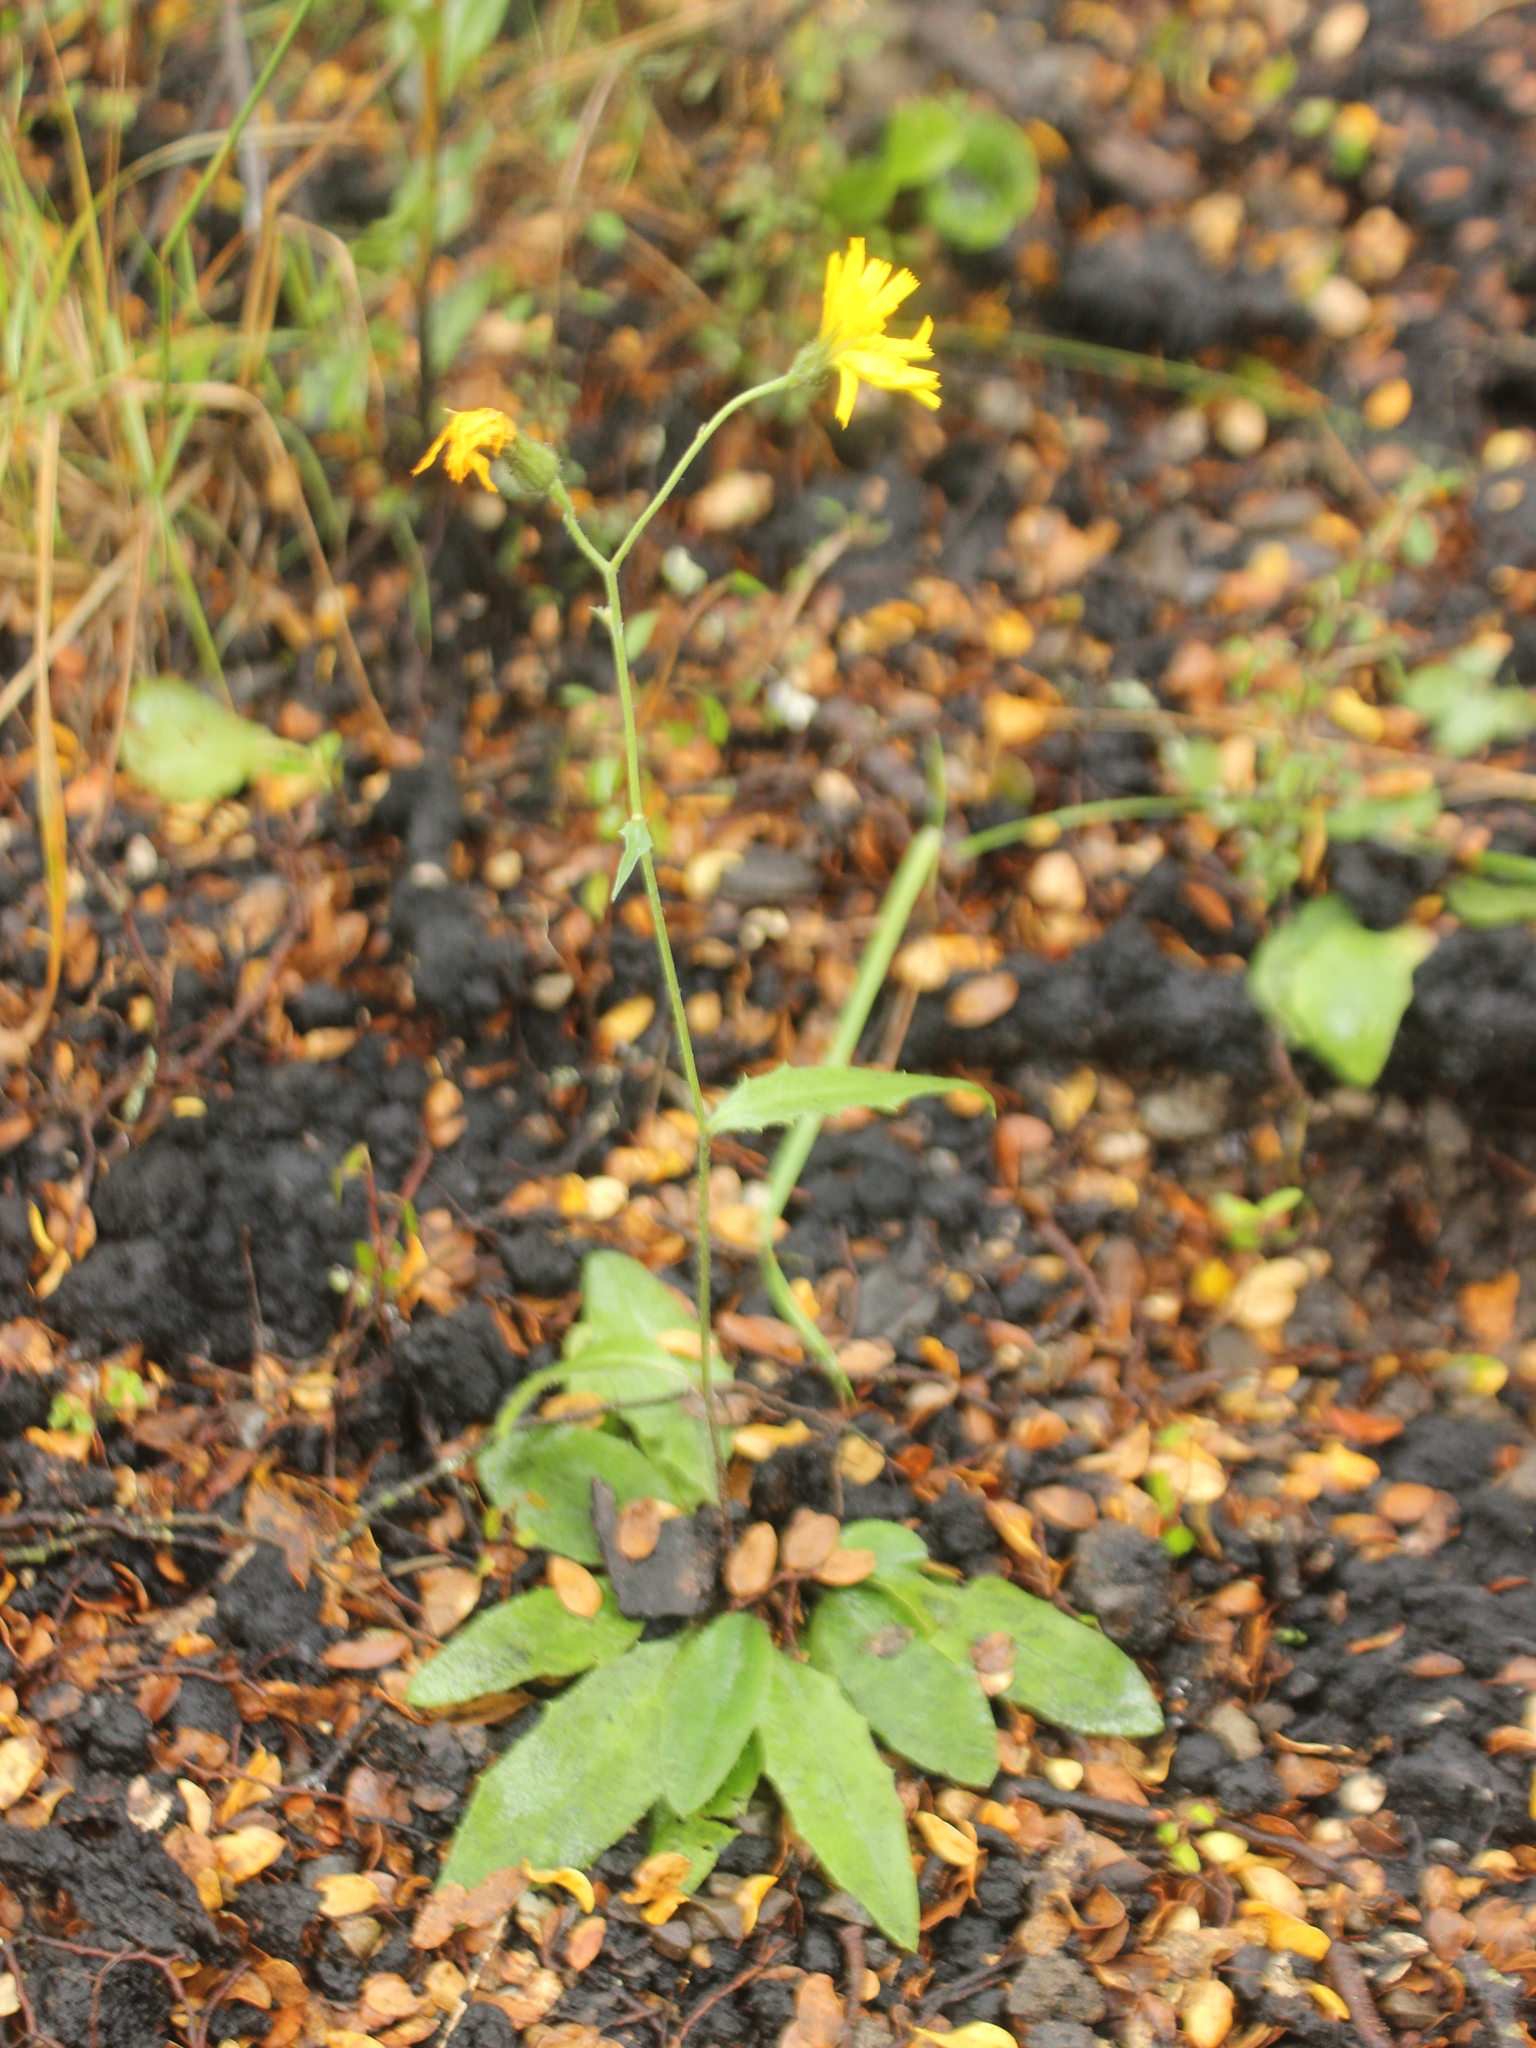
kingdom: Plantae
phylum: Tracheophyta
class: Magnoliopsida
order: Asterales
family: Asteraceae
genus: Hieracium
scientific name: Hieracium lepidulum
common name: Irregular-toothed hawkweed
